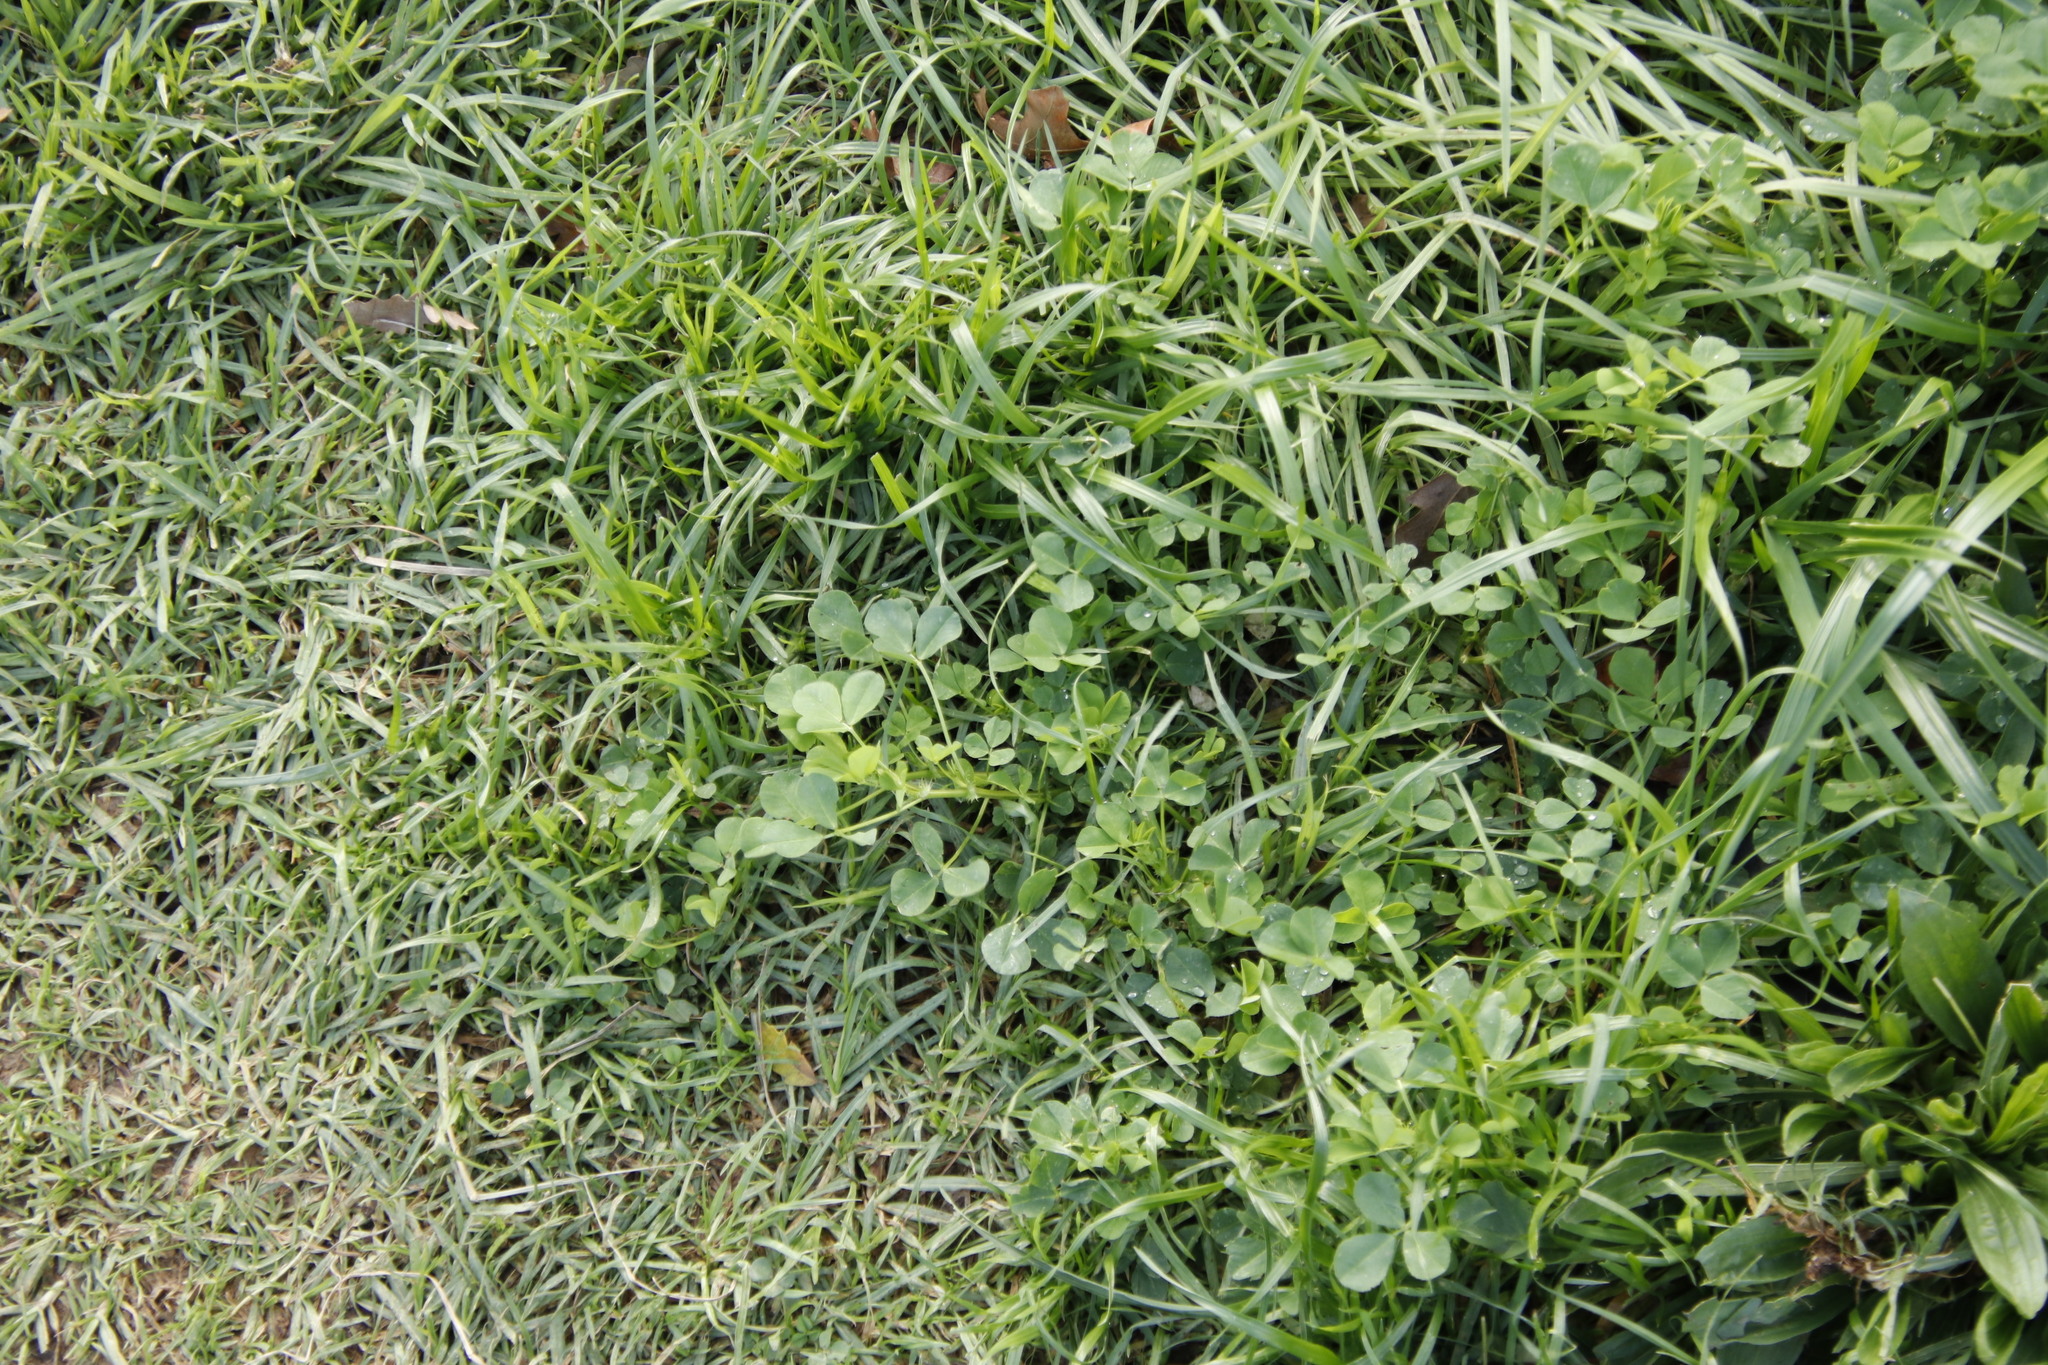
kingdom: Plantae
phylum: Tracheophyta
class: Magnoliopsida
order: Fabales
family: Fabaceae
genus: Trifolium
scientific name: Trifolium repens
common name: White clover
